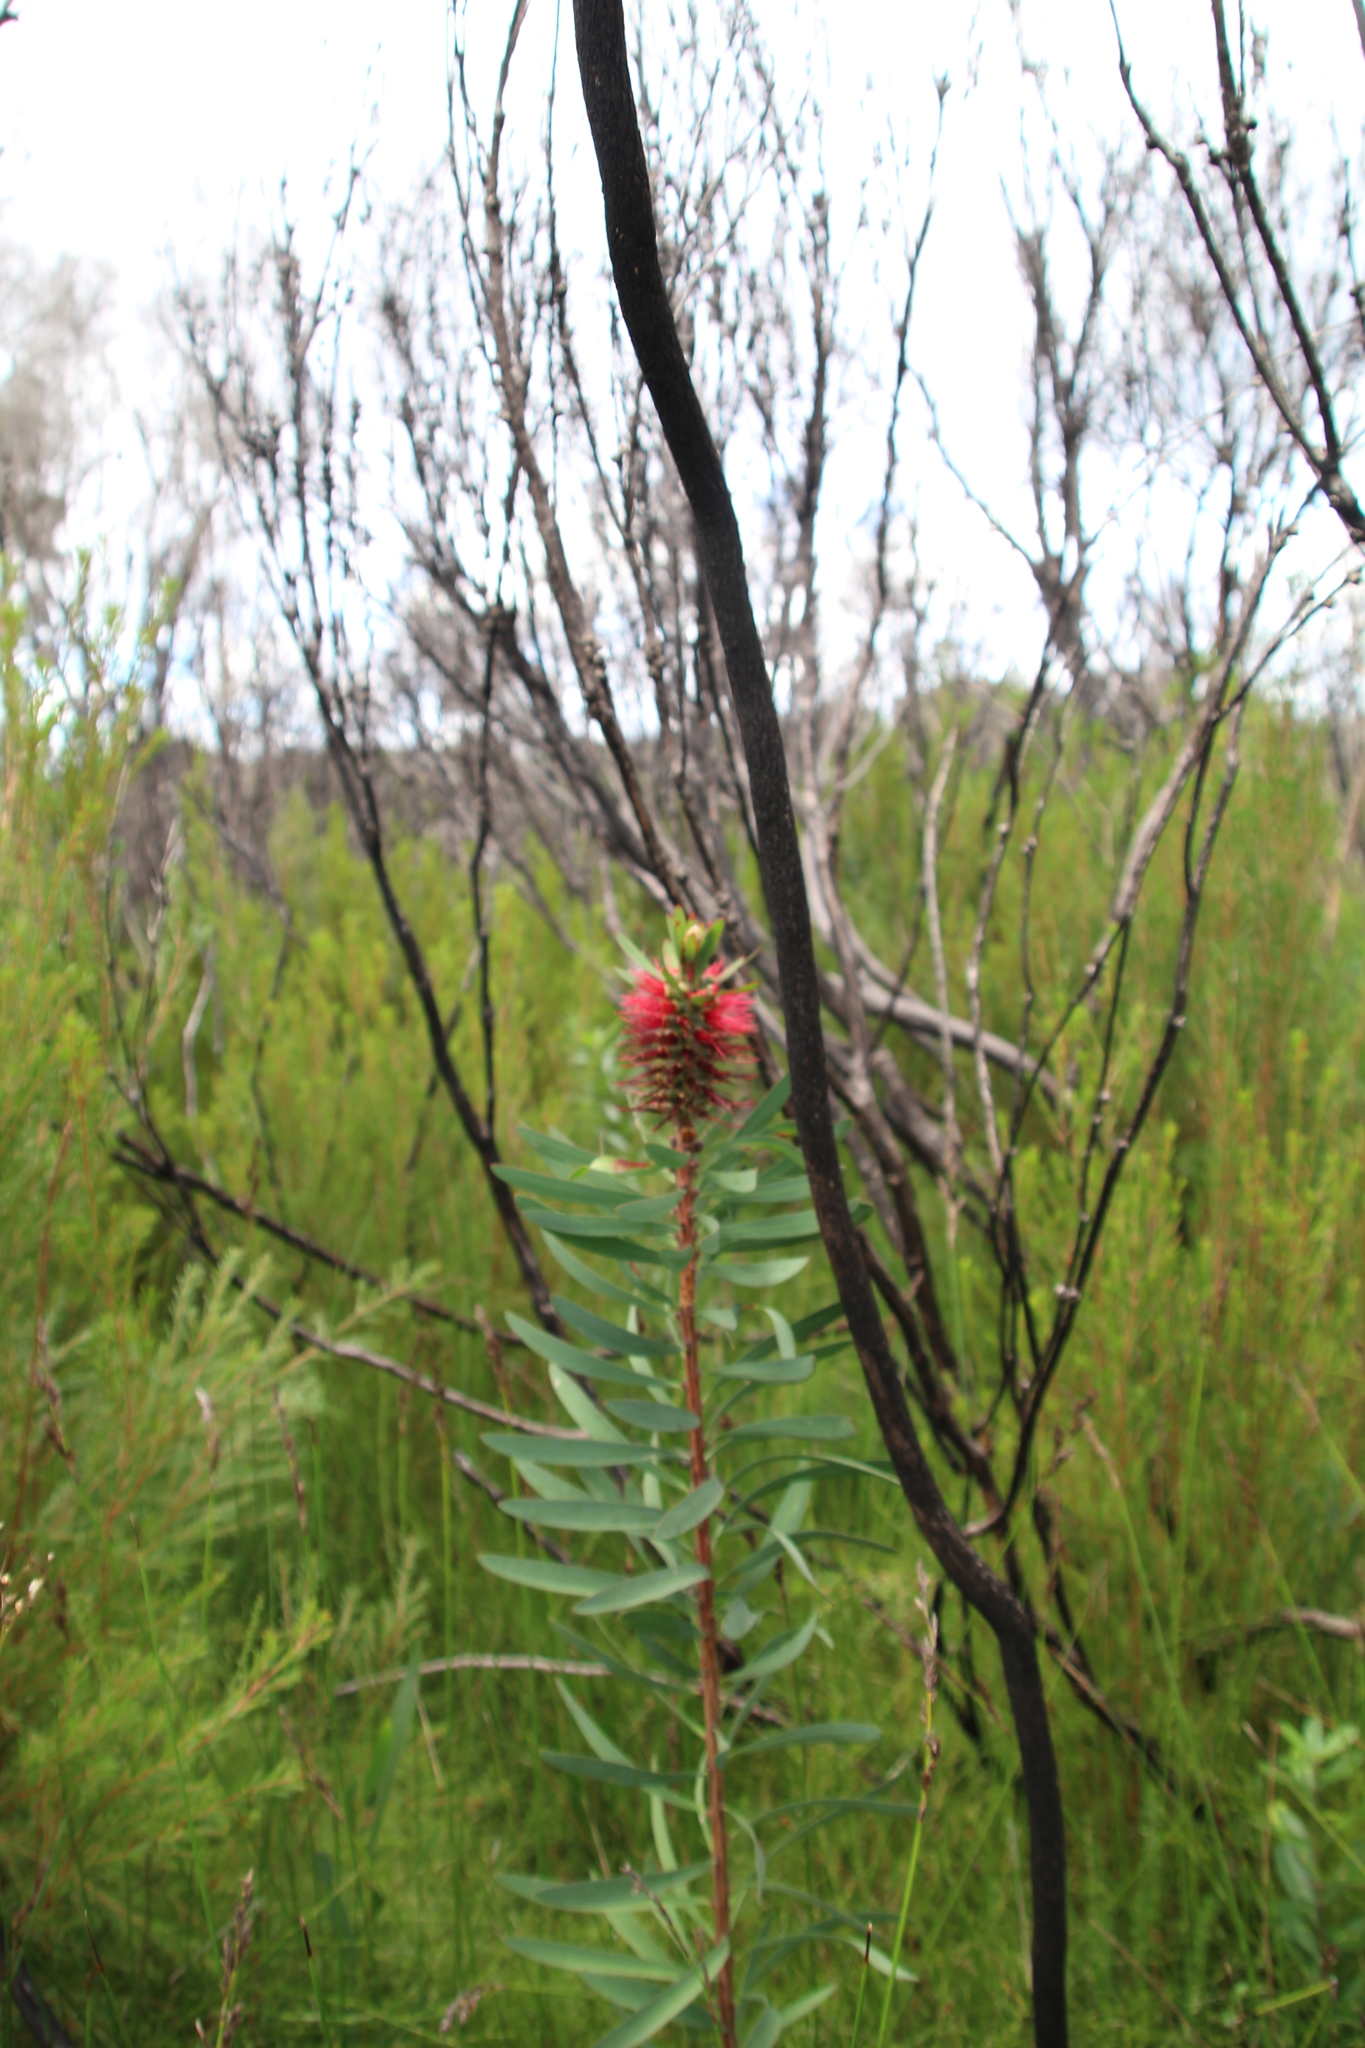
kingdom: Plantae
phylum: Tracheophyta
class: Magnoliopsida
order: Myrtales
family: Myrtaceae
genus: Melaleuca
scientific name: Melaleuca glauca
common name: Albany-bottlebrush
